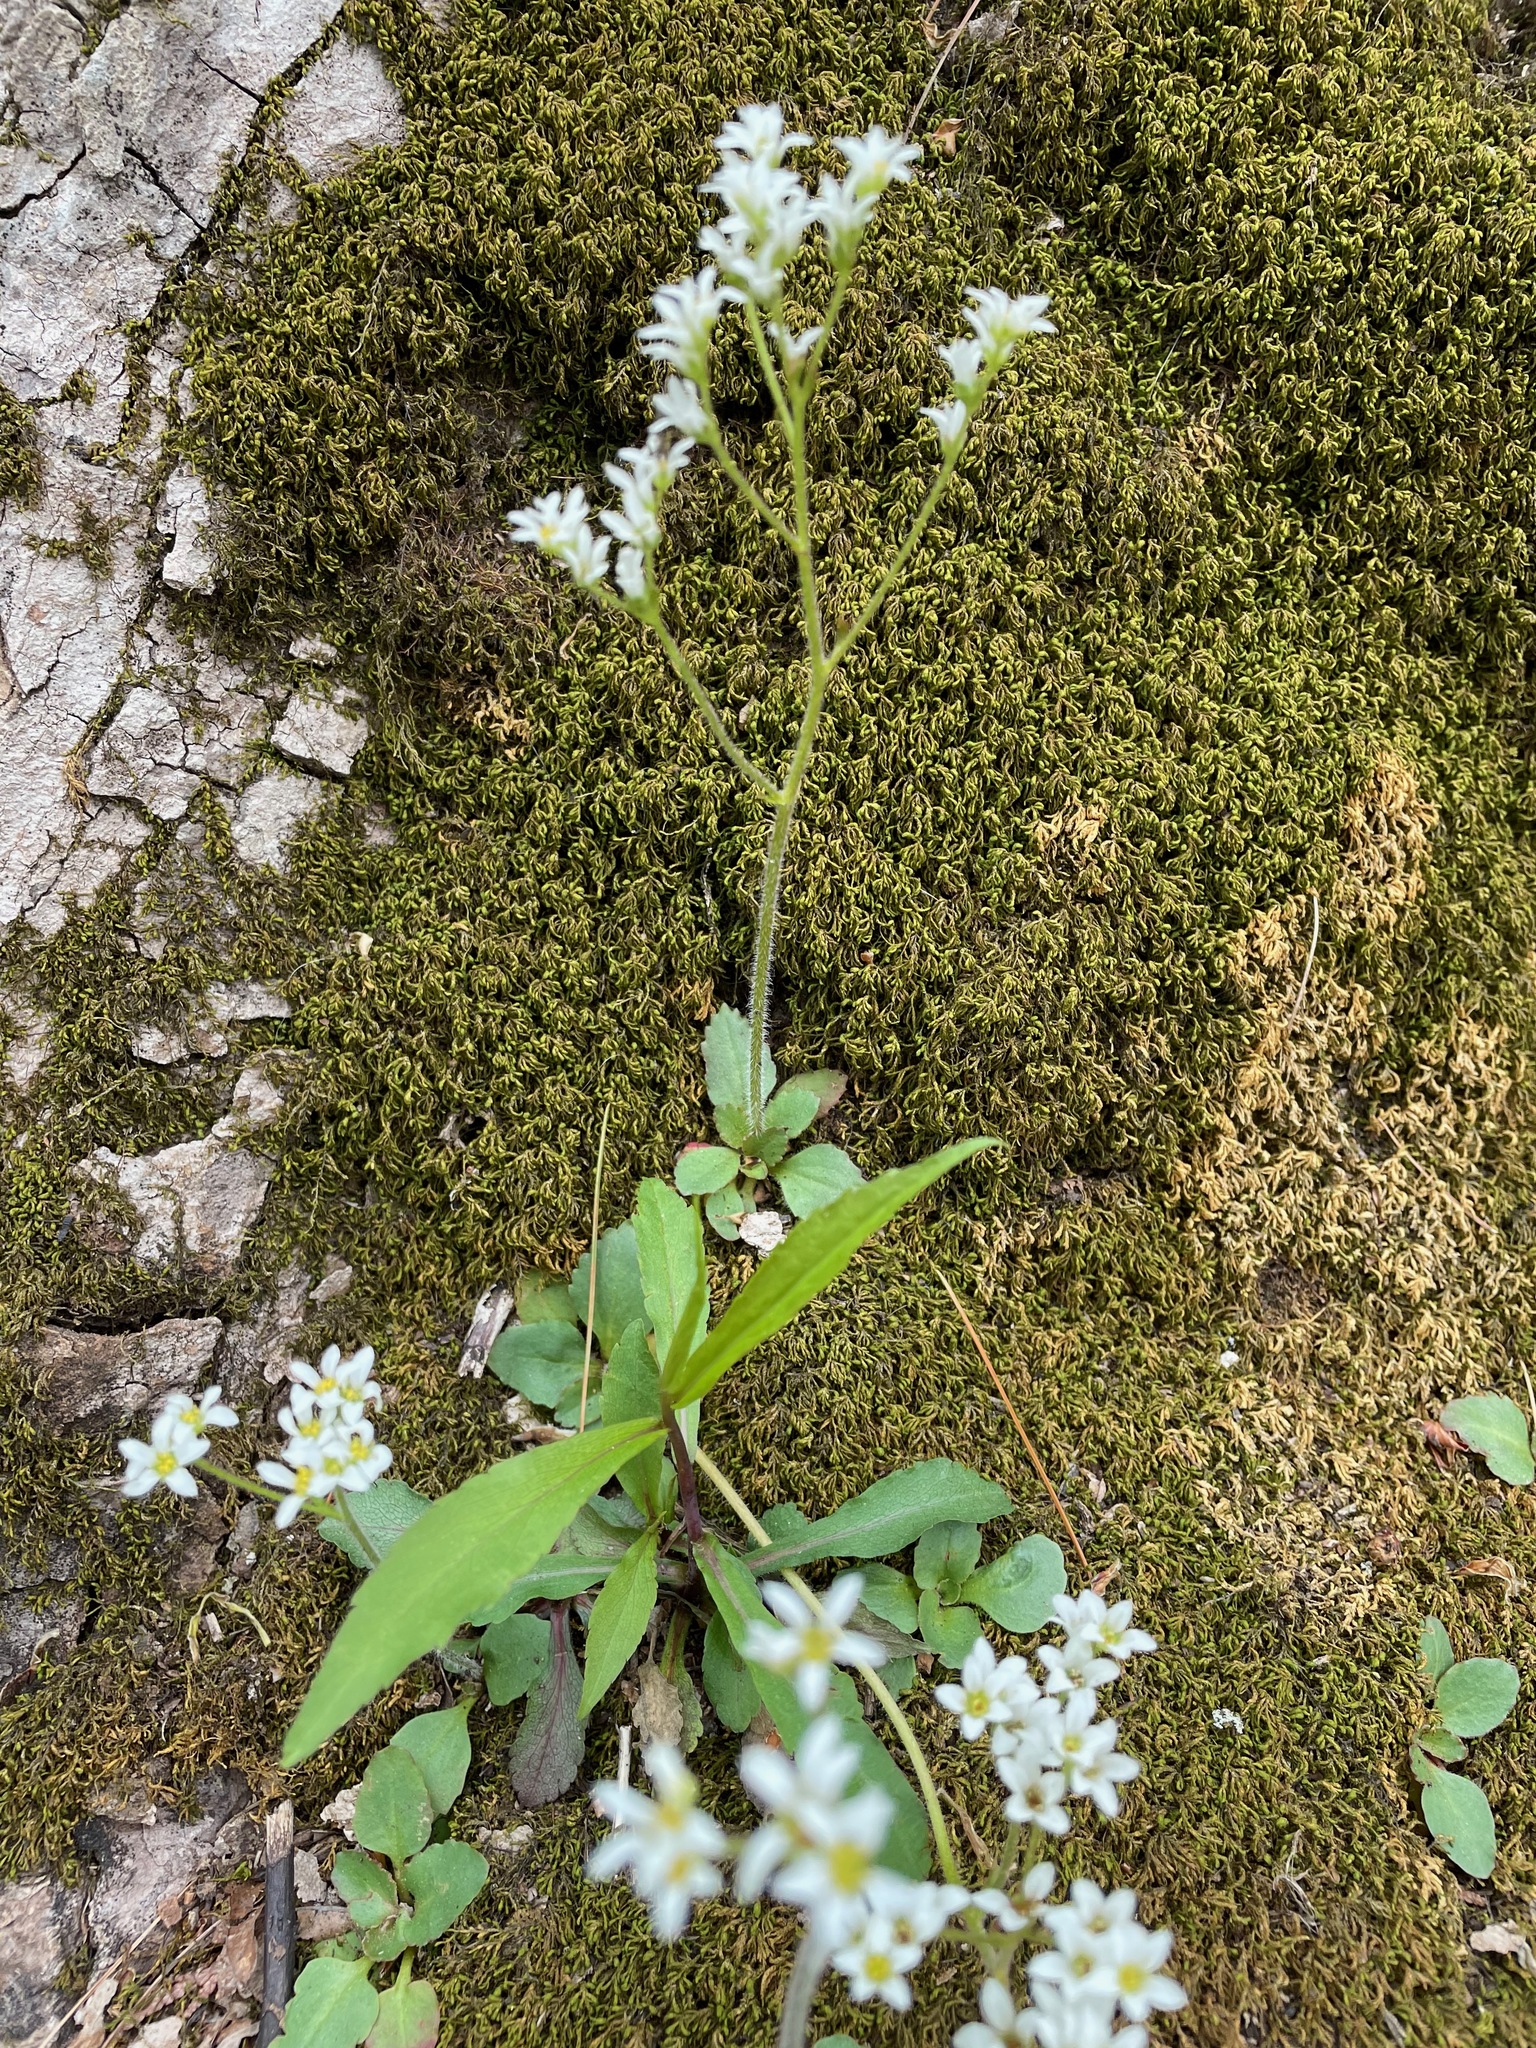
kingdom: Plantae
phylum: Tracheophyta
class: Magnoliopsida
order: Saxifragales
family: Saxifragaceae
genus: Micranthes
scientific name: Micranthes virginiensis
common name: Early saxifrage
